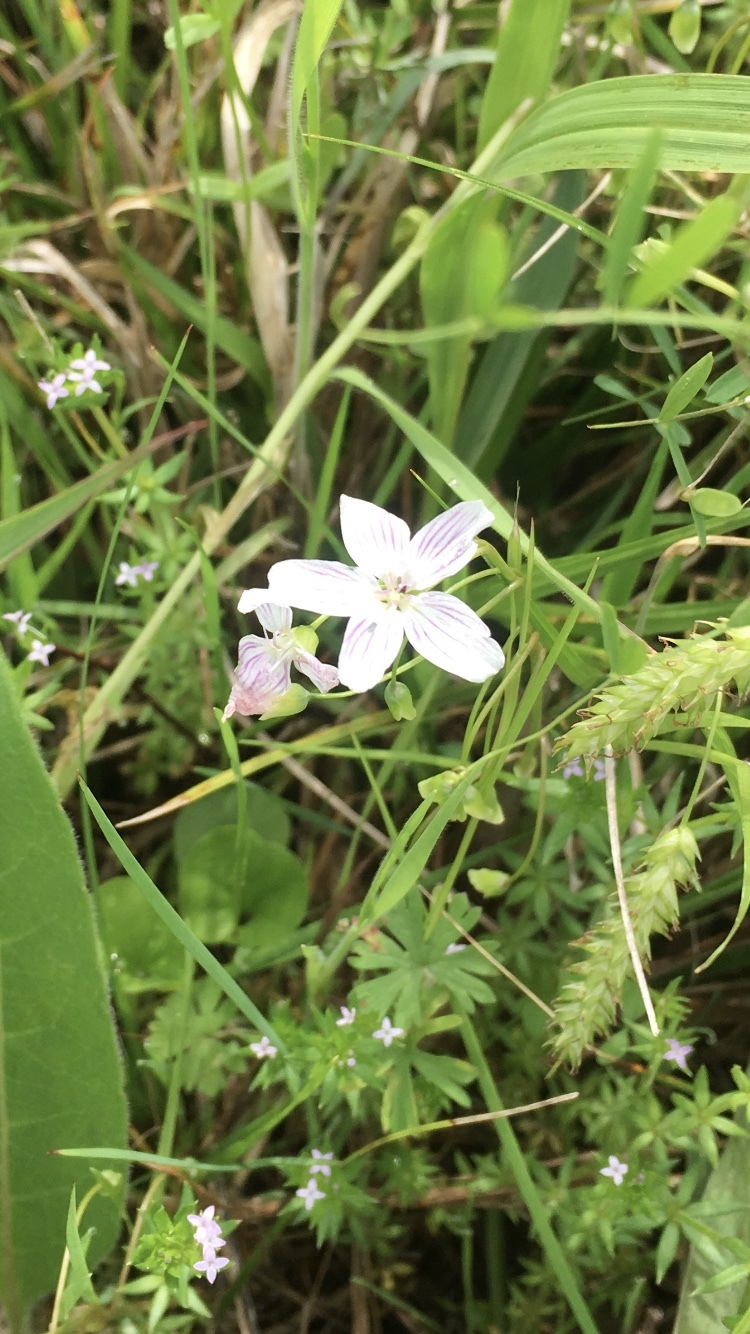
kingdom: Plantae
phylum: Tracheophyta
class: Magnoliopsida
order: Gentianales
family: Rubiaceae
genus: Sherardia
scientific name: Sherardia arvensis
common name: Field madder
